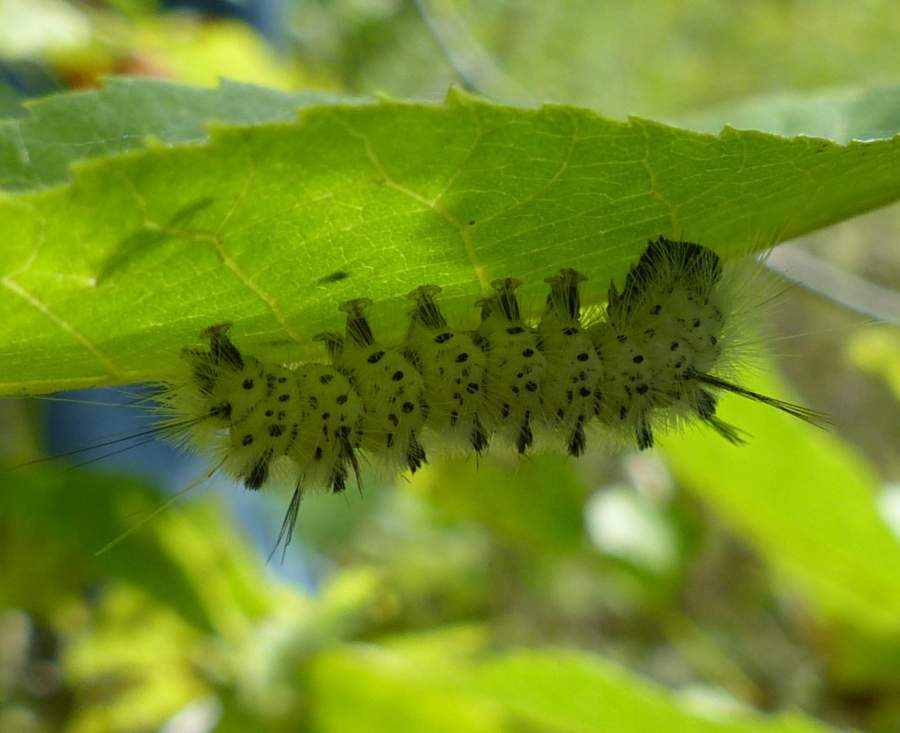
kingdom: Animalia
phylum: Arthropoda
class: Insecta
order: Lepidoptera
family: Erebidae
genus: Lophocampa
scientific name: Lophocampa caryae
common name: Hickory tussock moth
